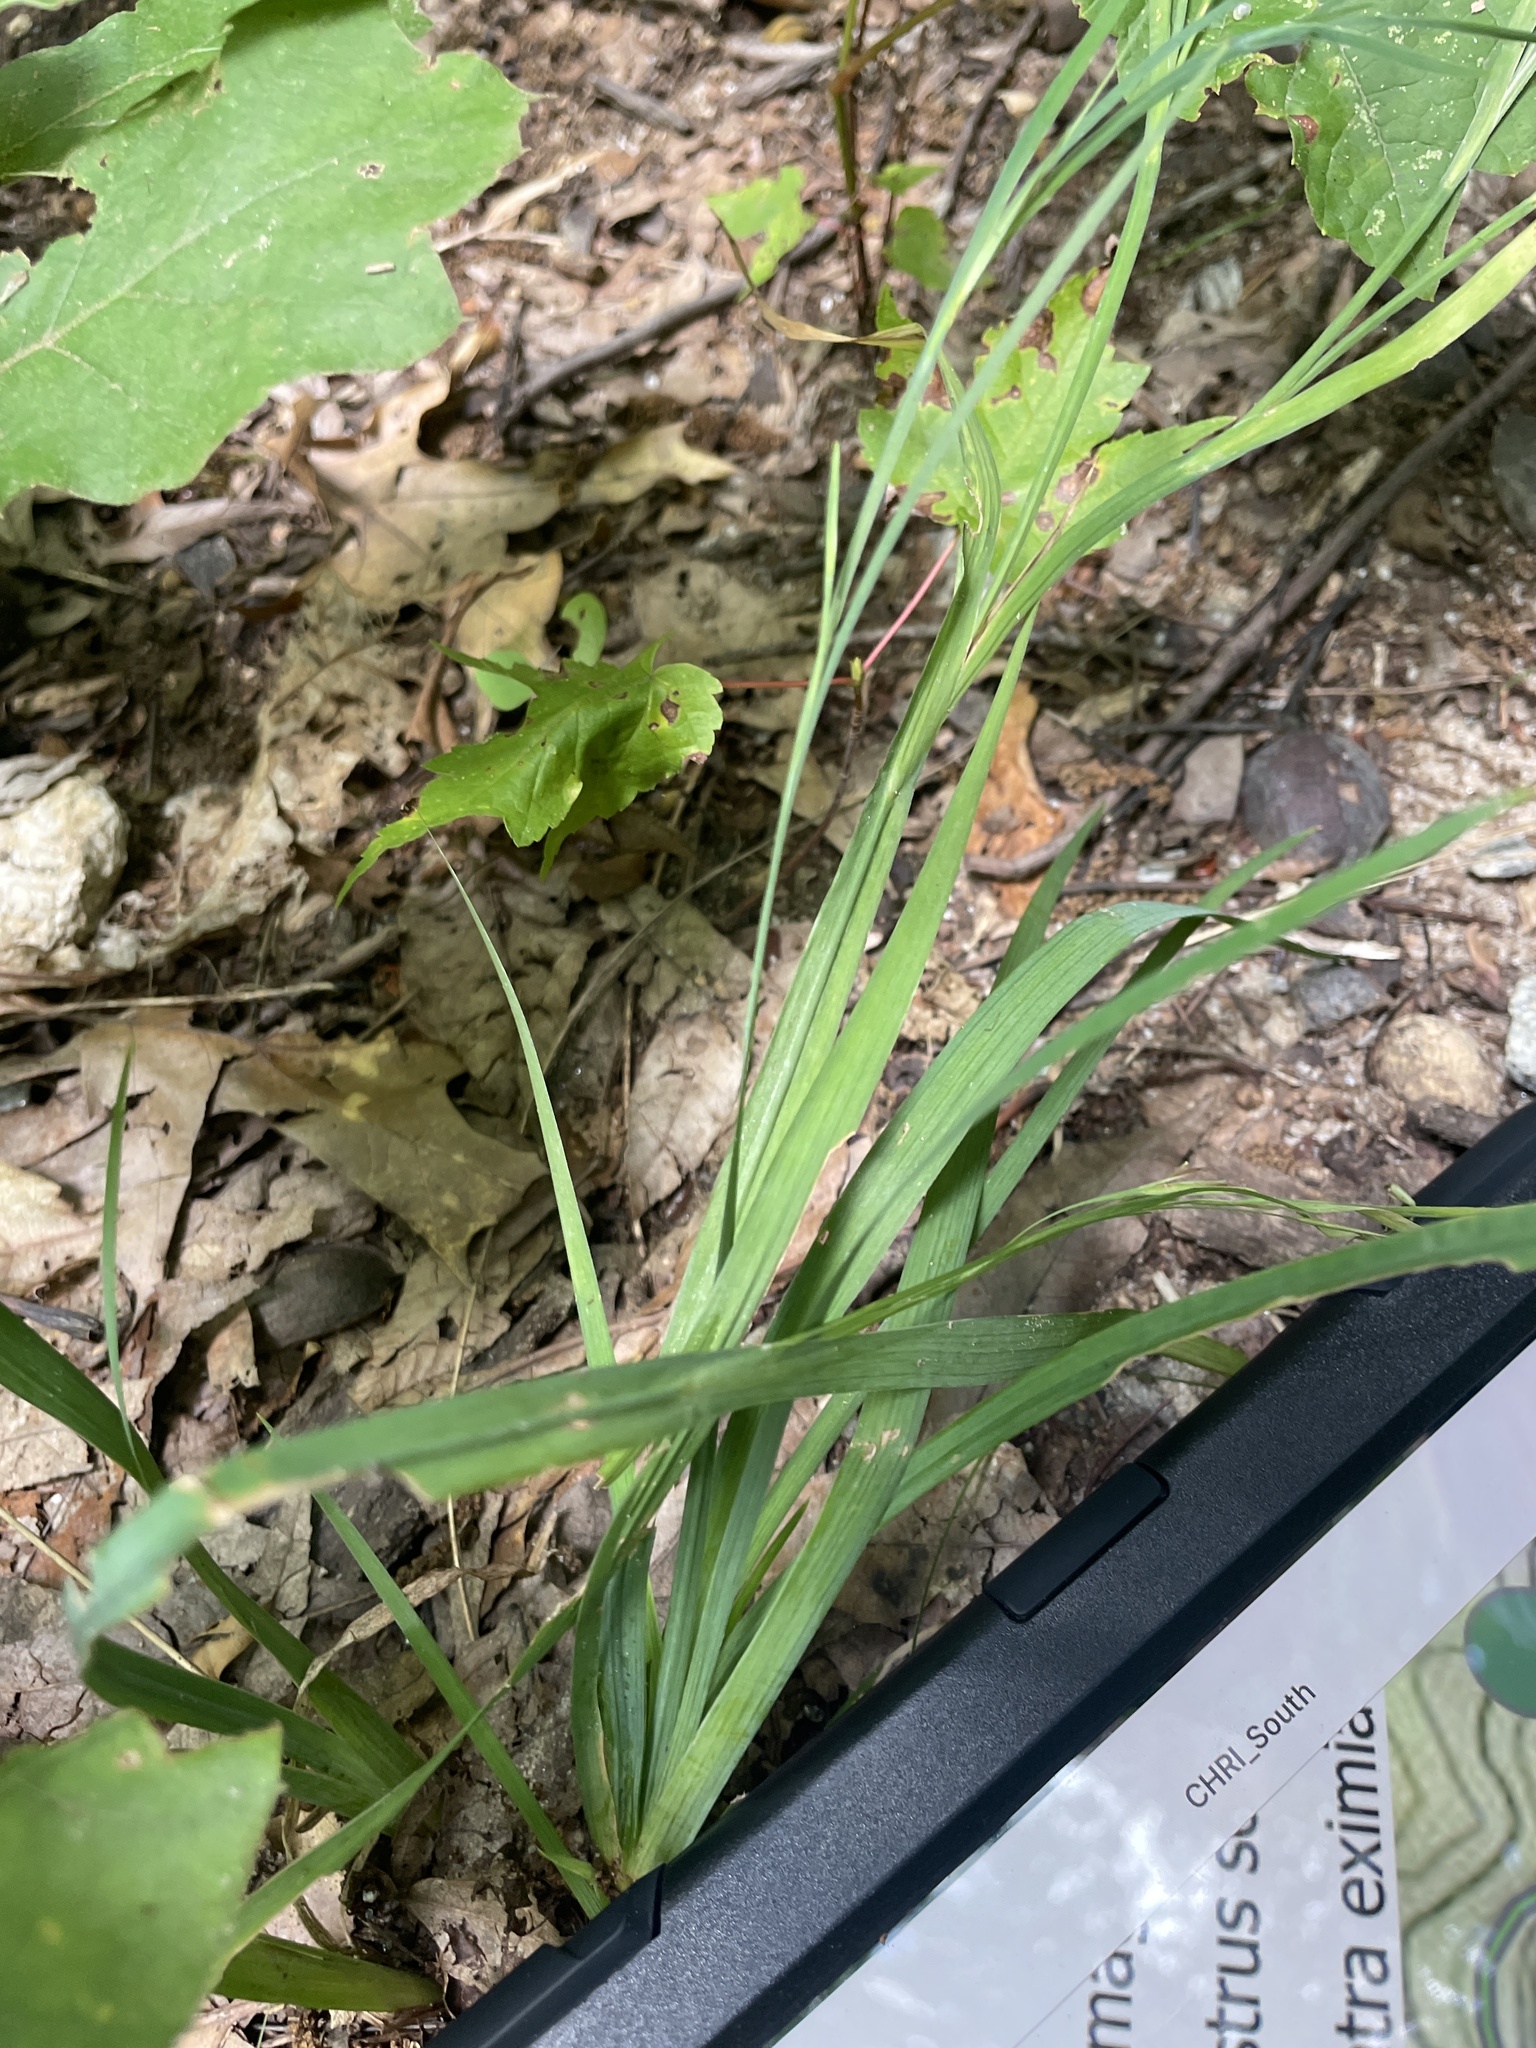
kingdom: Plantae
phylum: Tracheophyta
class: Liliopsida
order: Asparagales
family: Iridaceae
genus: Sisyrinchium
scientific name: Sisyrinchium dichotomum
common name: White irisette
